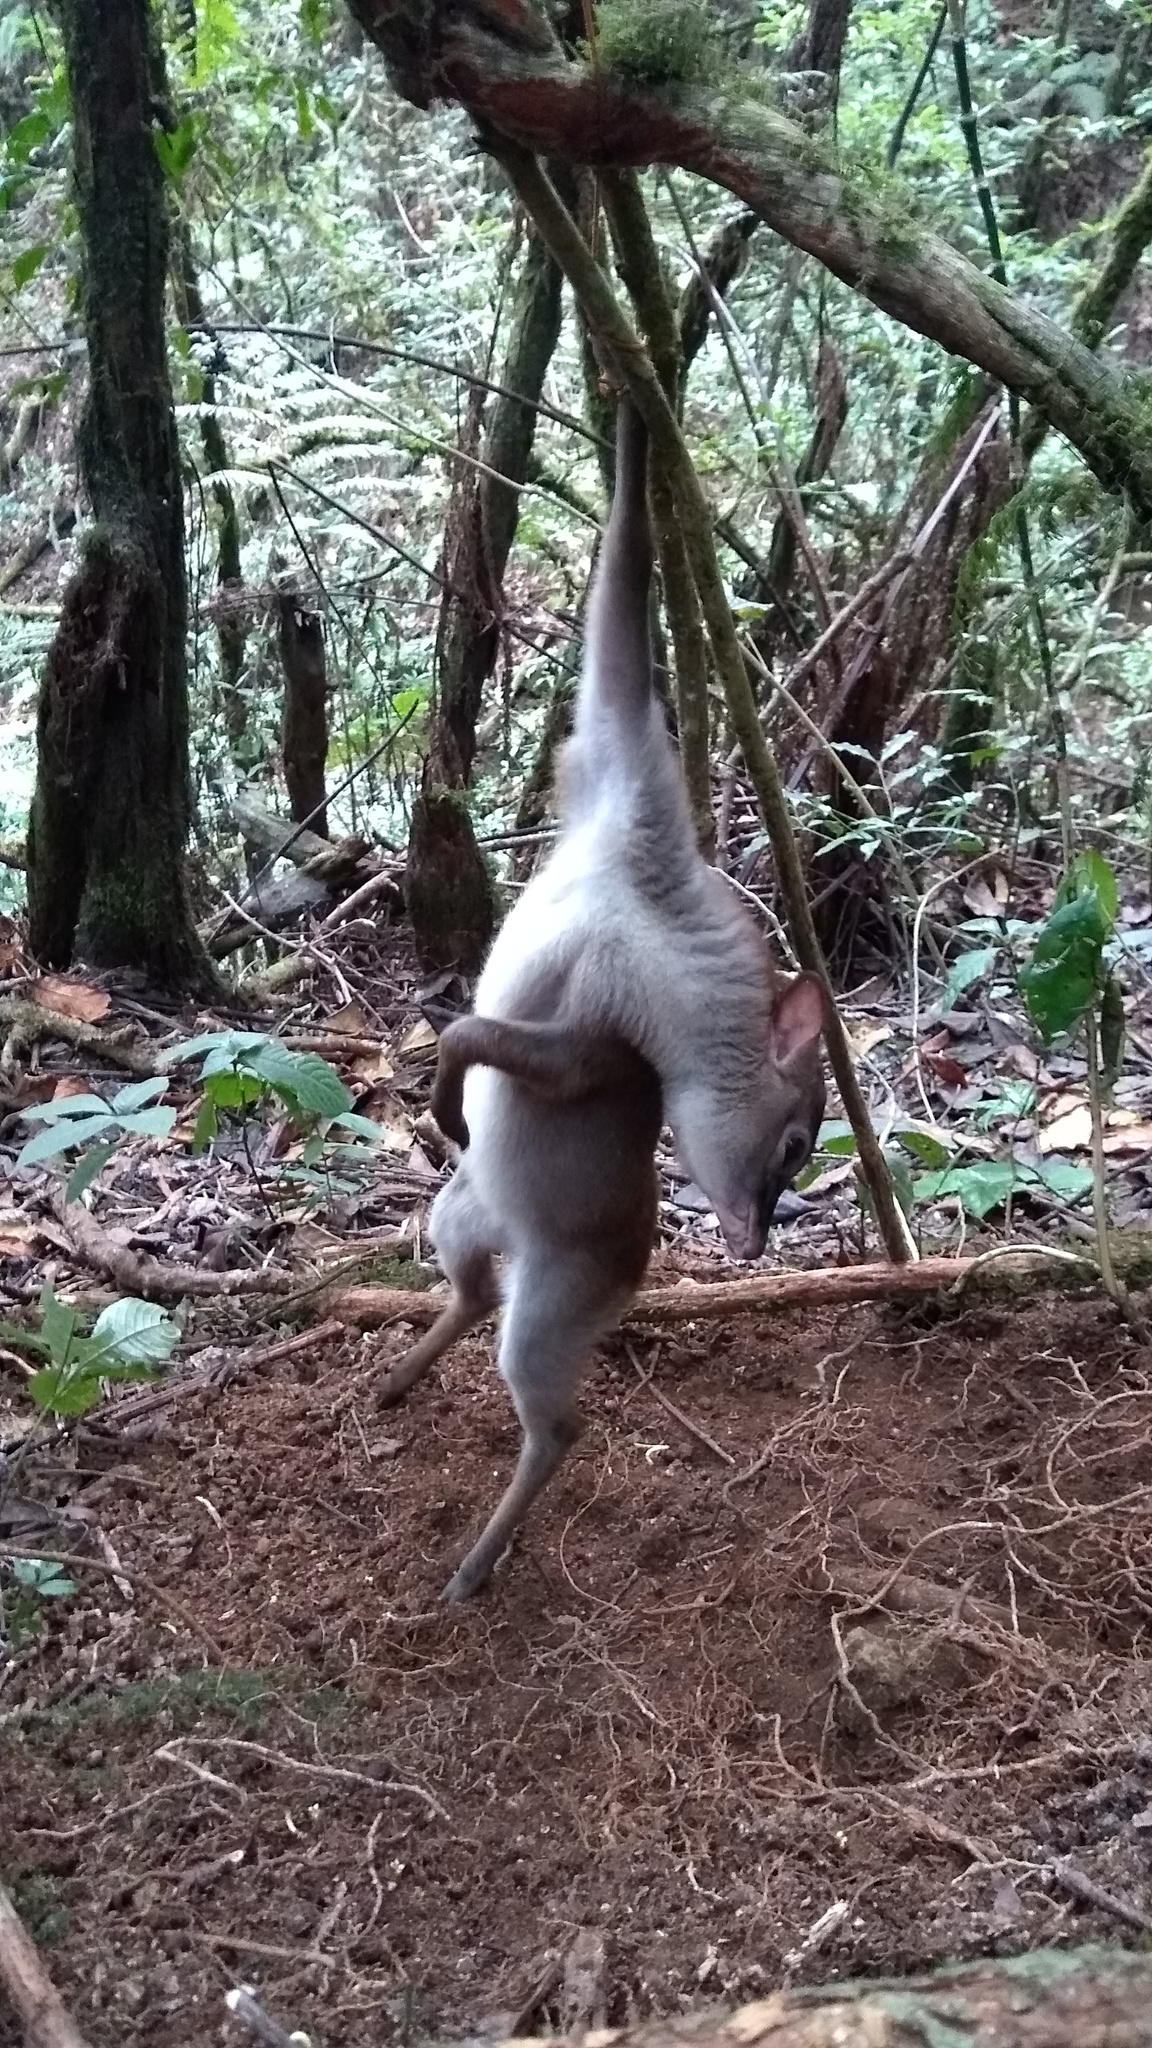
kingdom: Animalia
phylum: Chordata
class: Mammalia
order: Artiodactyla
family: Bovidae
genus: Philantomba
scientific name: Philantomba monticola
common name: Blue duiker
